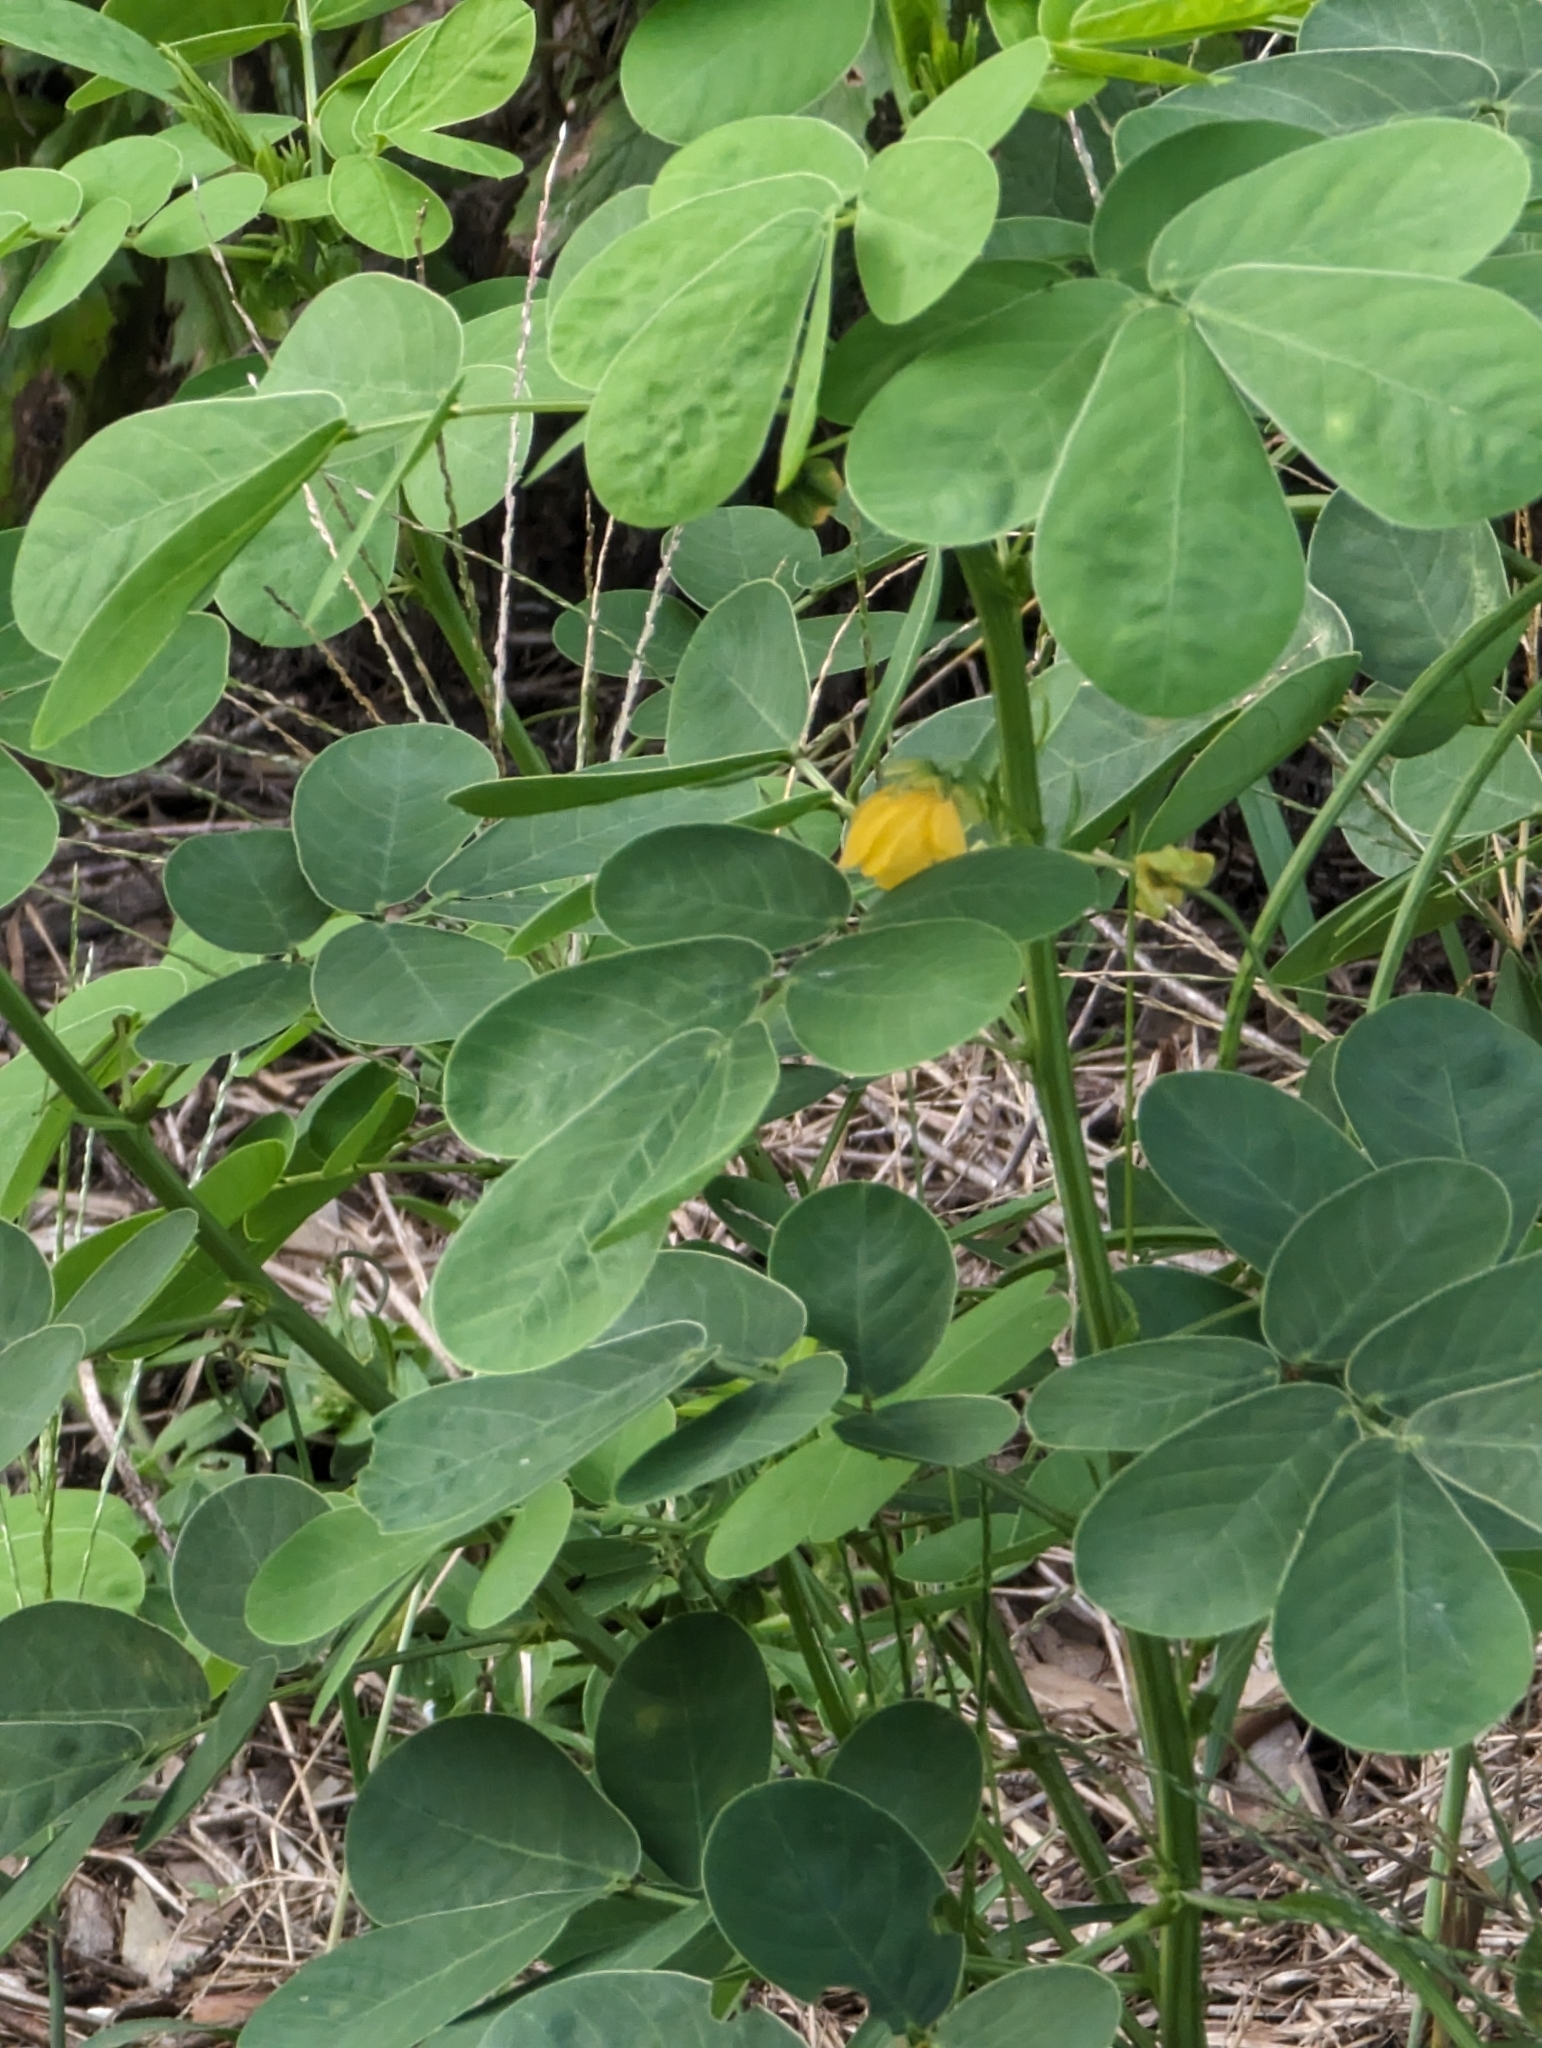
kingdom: Plantae
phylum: Tracheophyta
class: Magnoliopsida
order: Fabales
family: Fabaceae
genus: Senna
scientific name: Senna obtusifolia
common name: Java-bean
